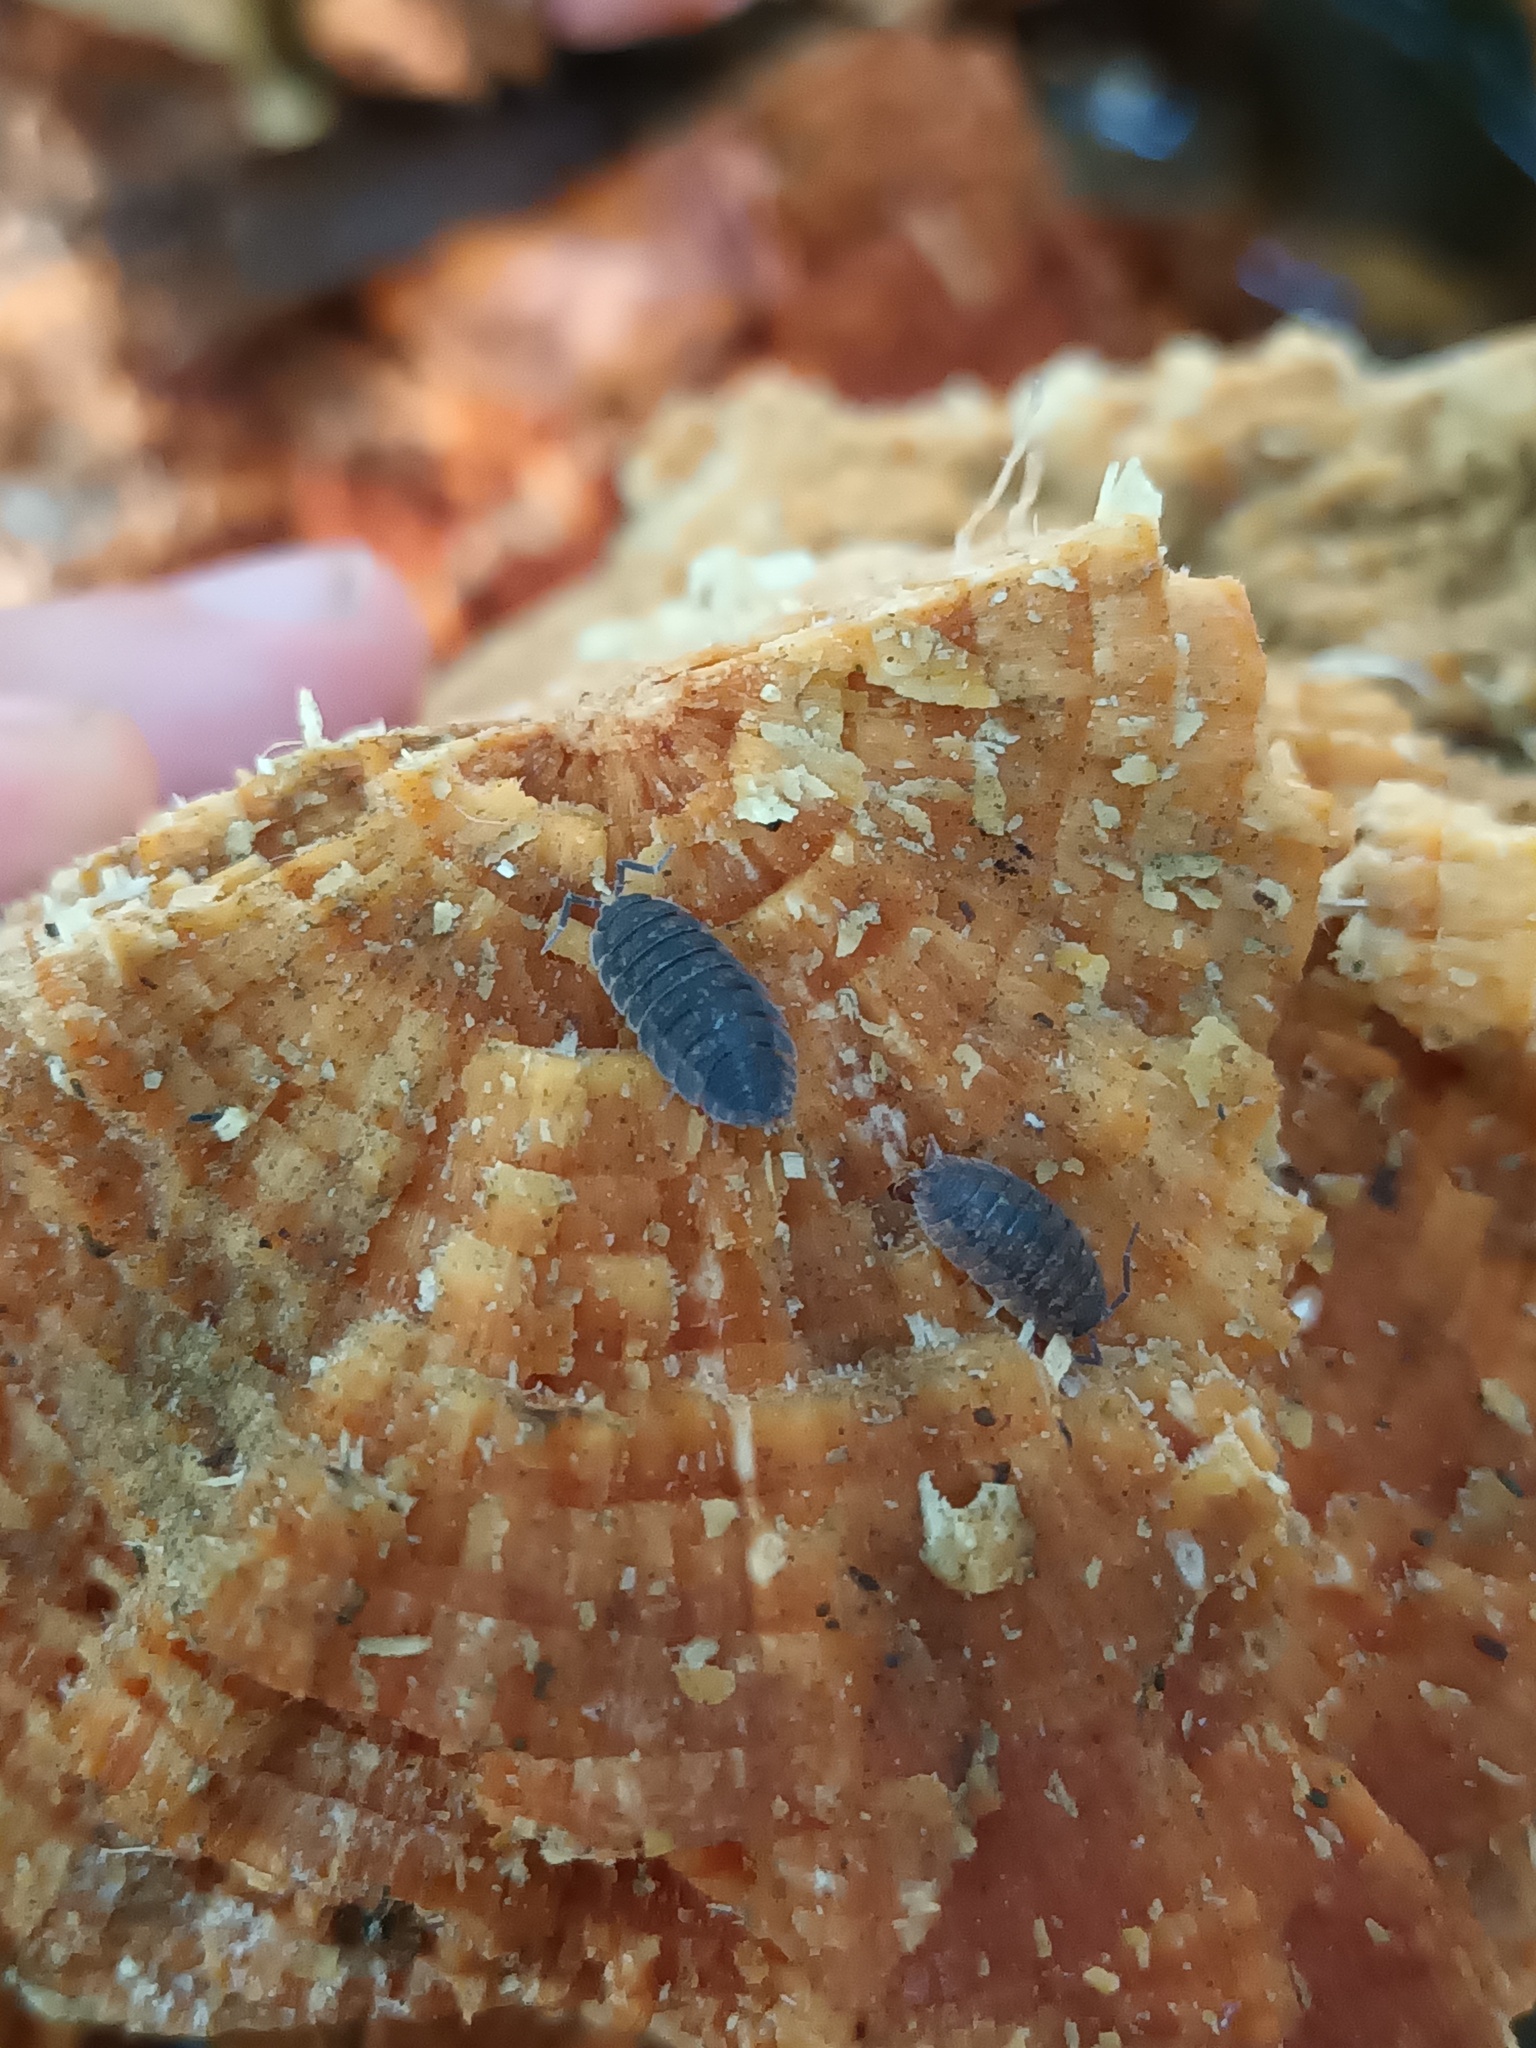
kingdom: Animalia
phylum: Arthropoda
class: Malacostraca
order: Isopoda
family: Porcellionidae
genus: Porcellio
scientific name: Porcellio scaber
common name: Common rough woodlouse
